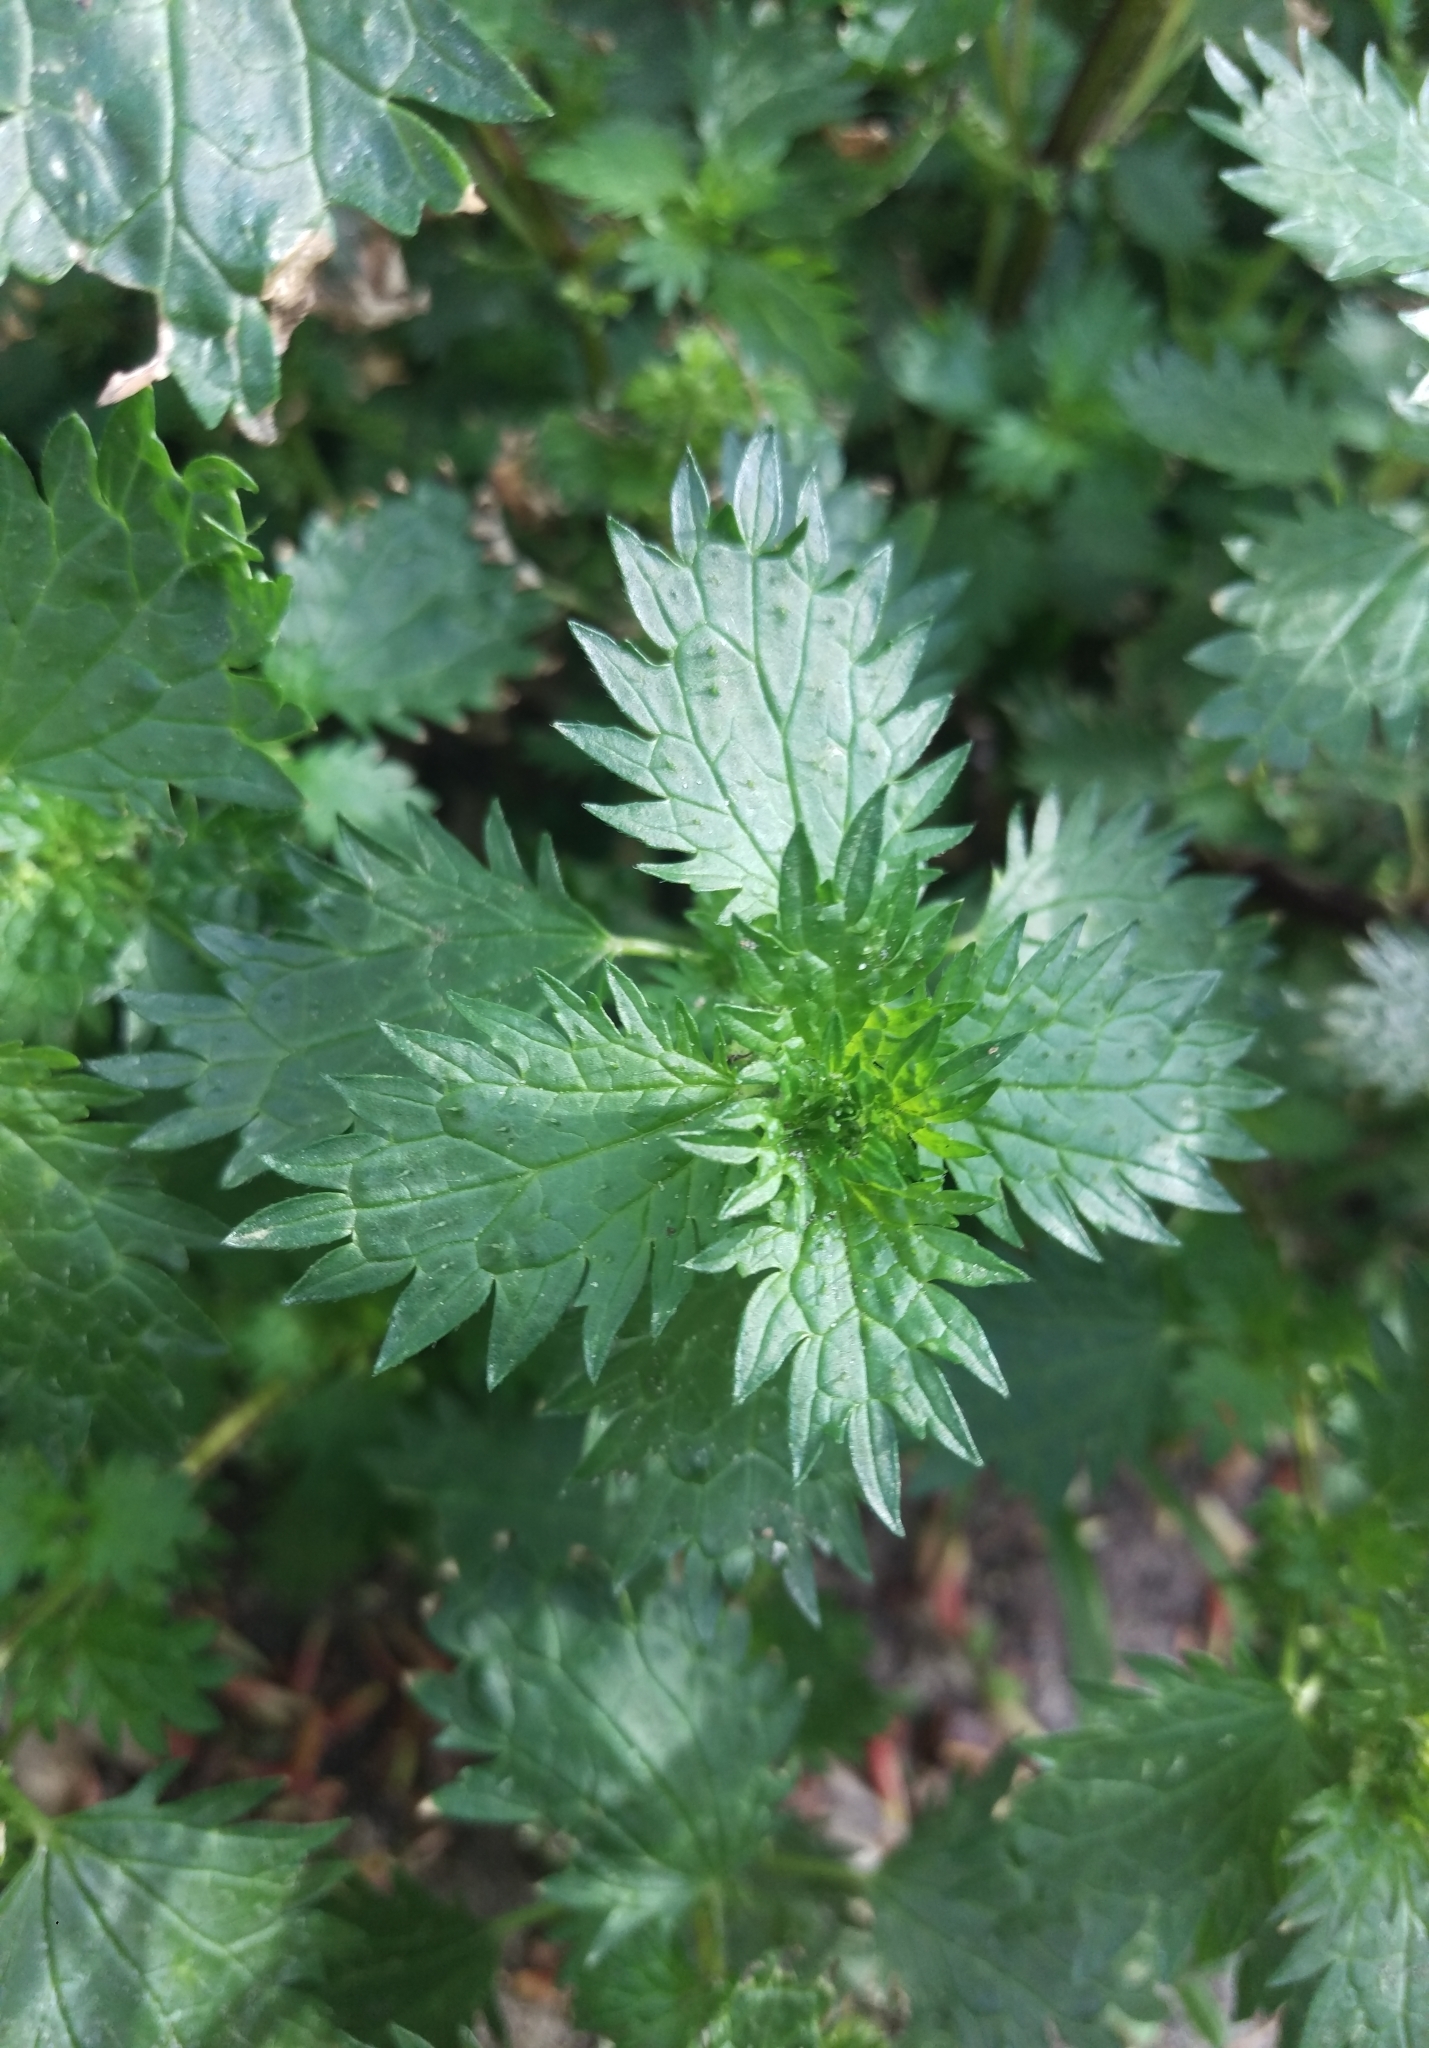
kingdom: Plantae
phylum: Tracheophyta
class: Magnoliopsida
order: Rosales
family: Urticaceae
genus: Urtica
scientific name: Urtica urens
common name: Dwarf nettle
